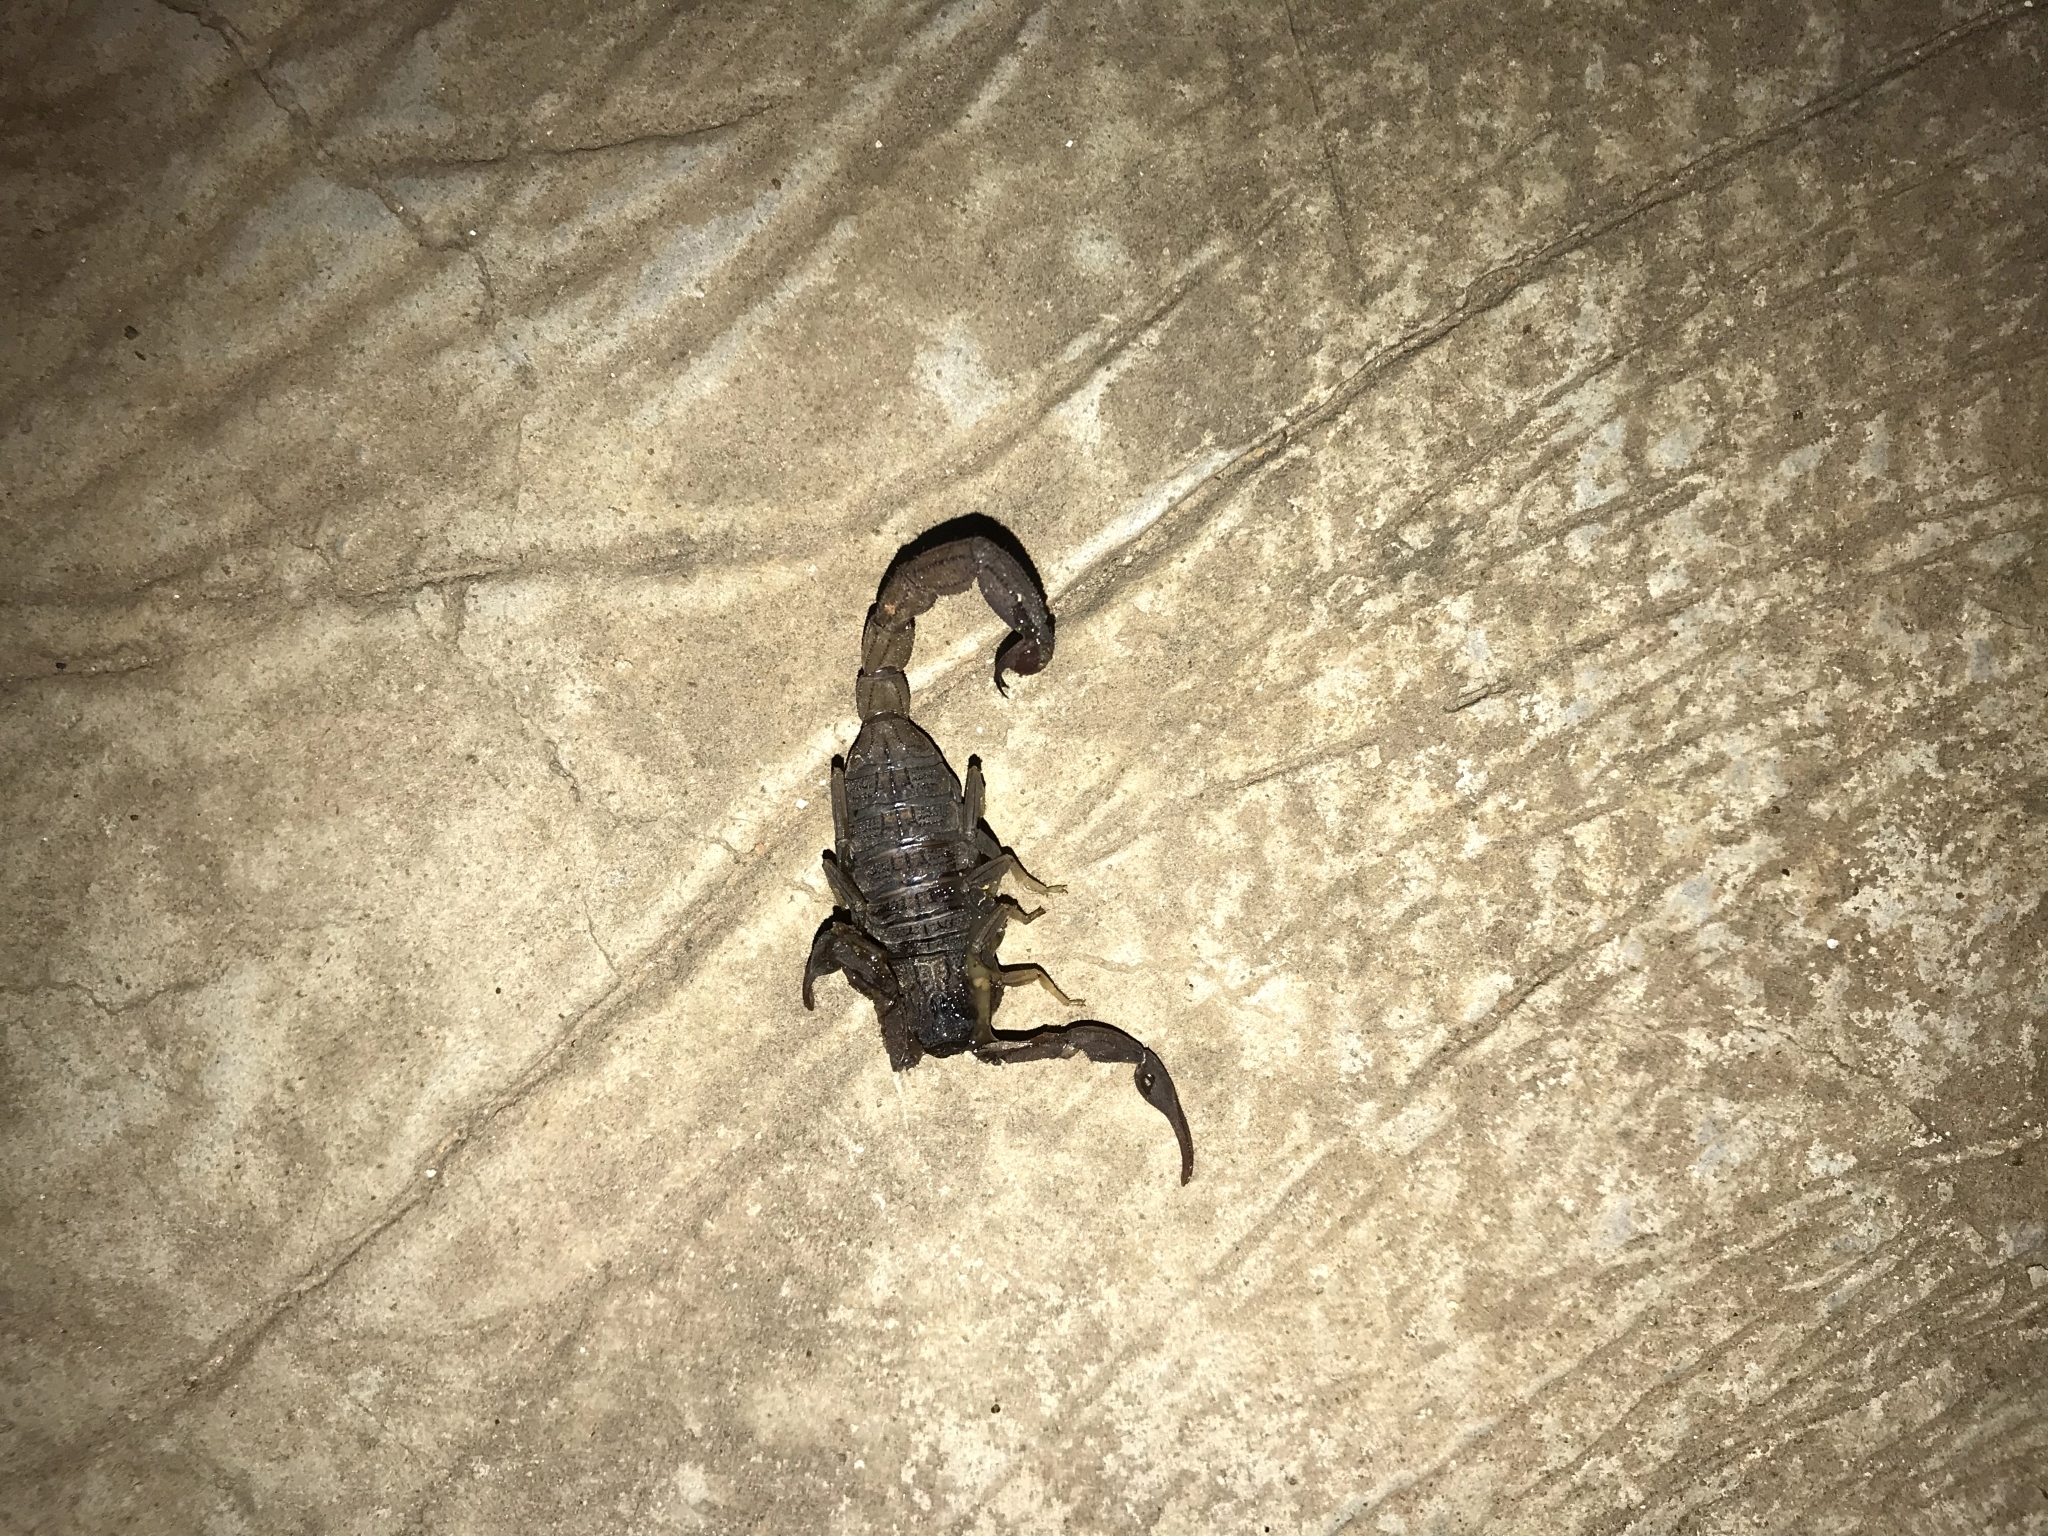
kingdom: Animalia
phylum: Arthropoda
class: Arachnida
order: Scorpiones
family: Buthidae
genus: Hottentotta
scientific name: Hottentotta hottentotta
